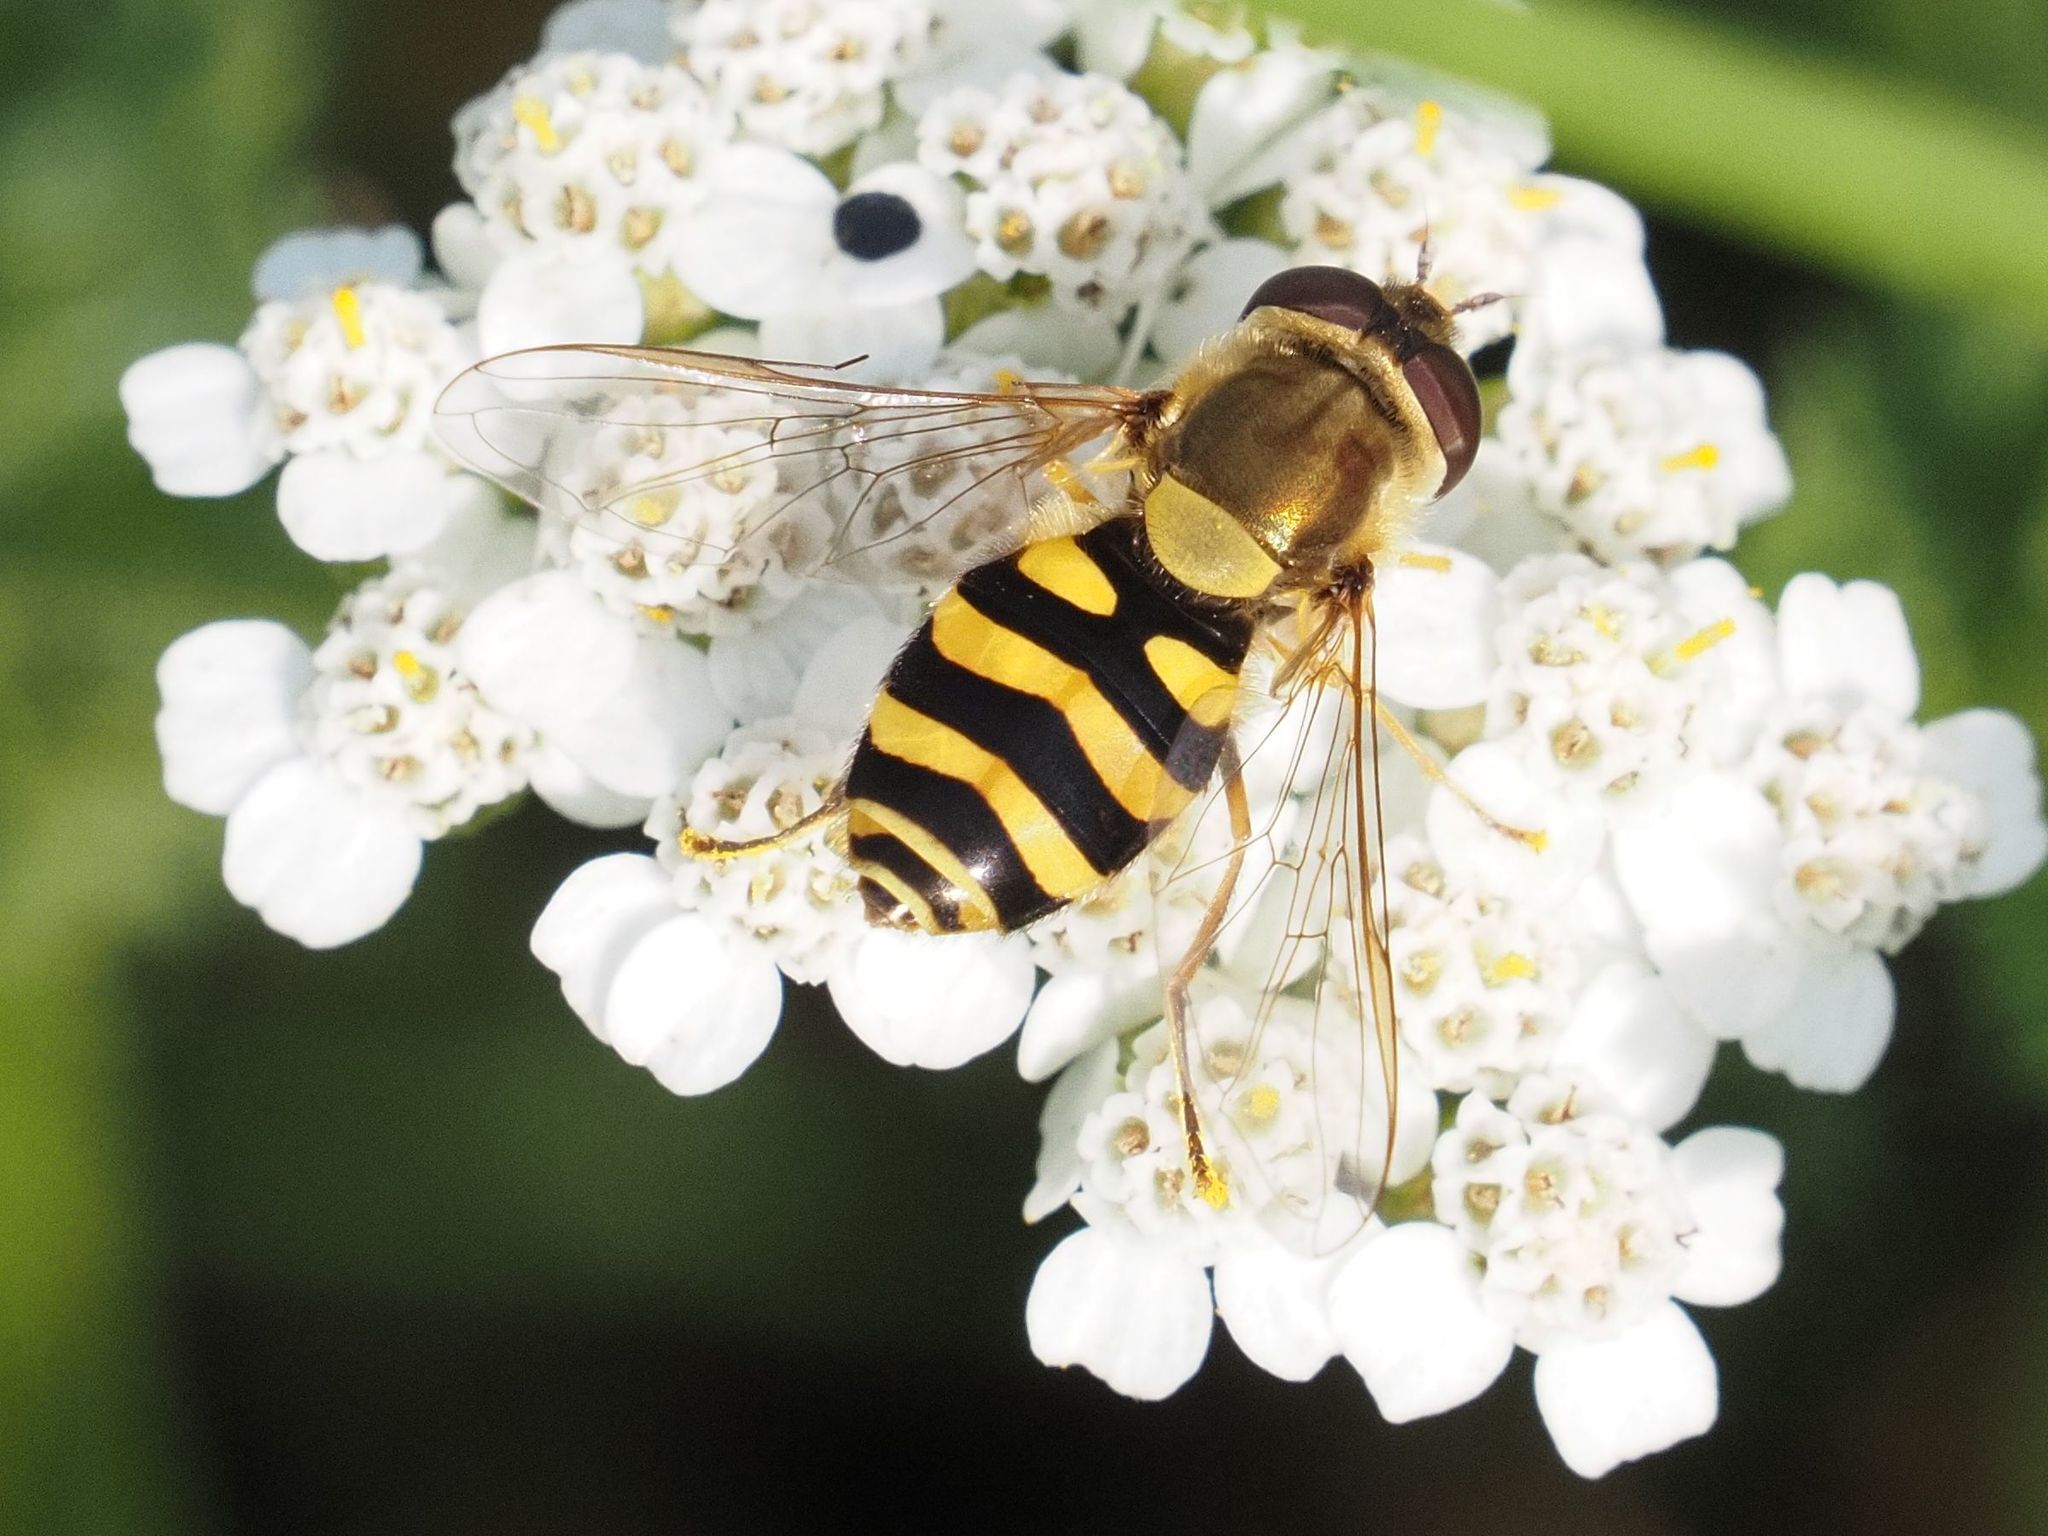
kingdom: Animalia
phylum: Arthropoda
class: Insecta
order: Diptera
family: Syrphidae
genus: Syrphus
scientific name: Syrphus vitripennis
